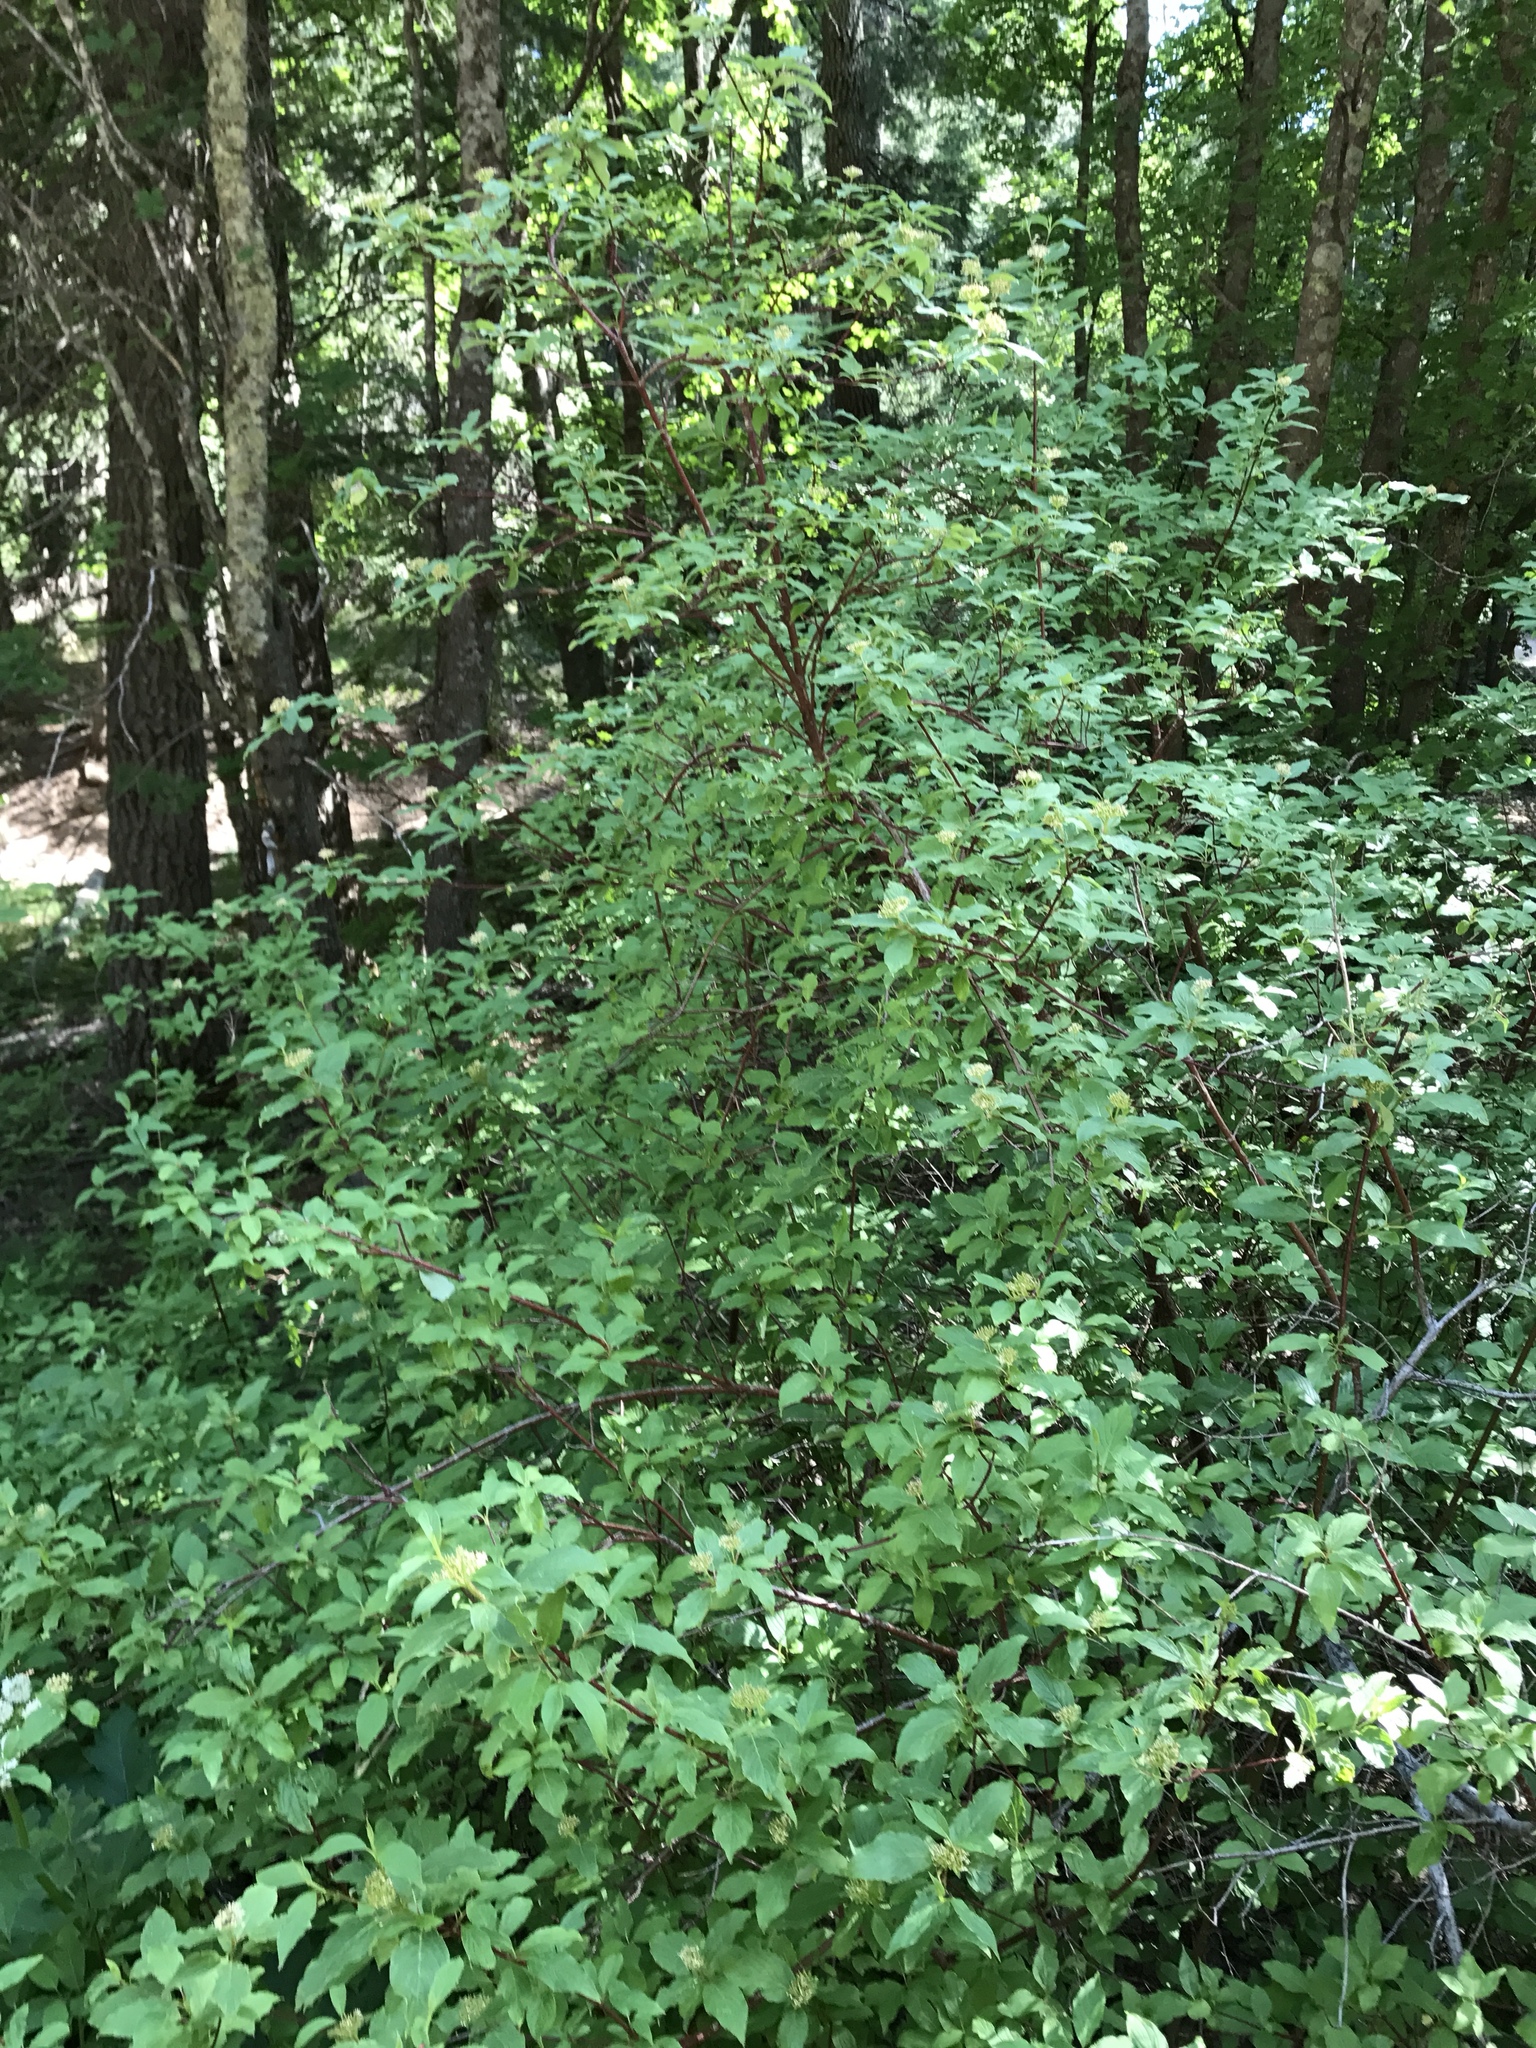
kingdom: Plantae
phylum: Tracheophyta
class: Magnoliopsida
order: Cornales
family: Cornaceae
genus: Cornus
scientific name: Cornus sericea
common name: Red-osier dogwood
